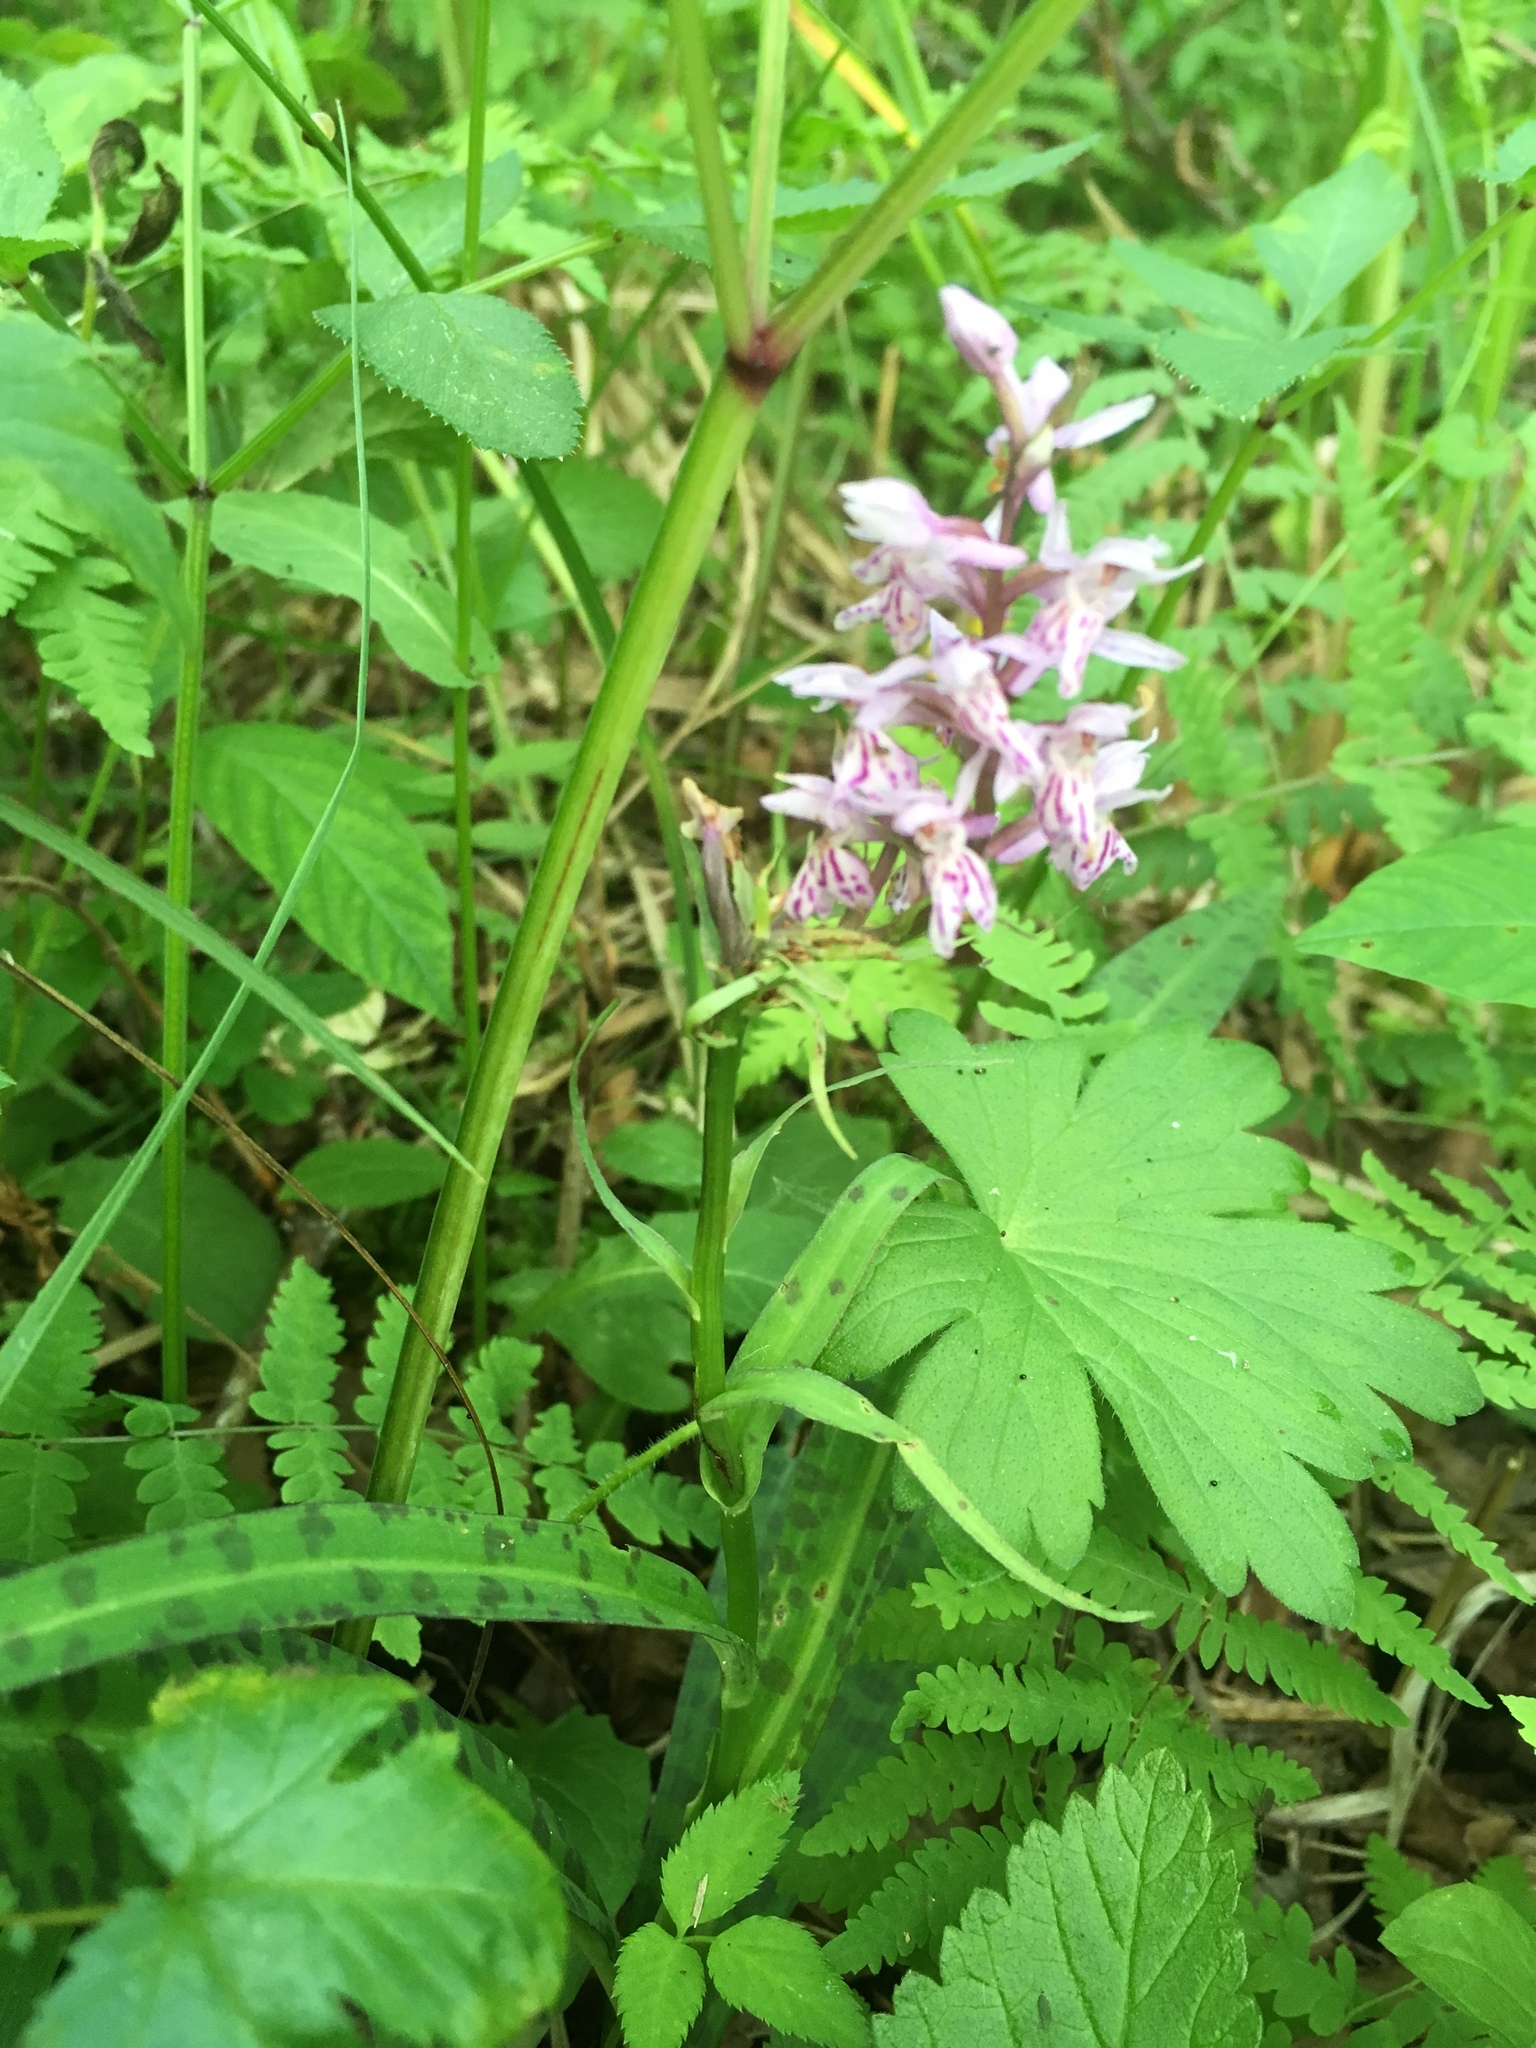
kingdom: Plantae
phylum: Tracheophyta
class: Liliopsida
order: Asparagales
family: Orchidaceae
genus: Dactylorhiza
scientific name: Dactylorhiza maculata
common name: Heath spotted-orchid
